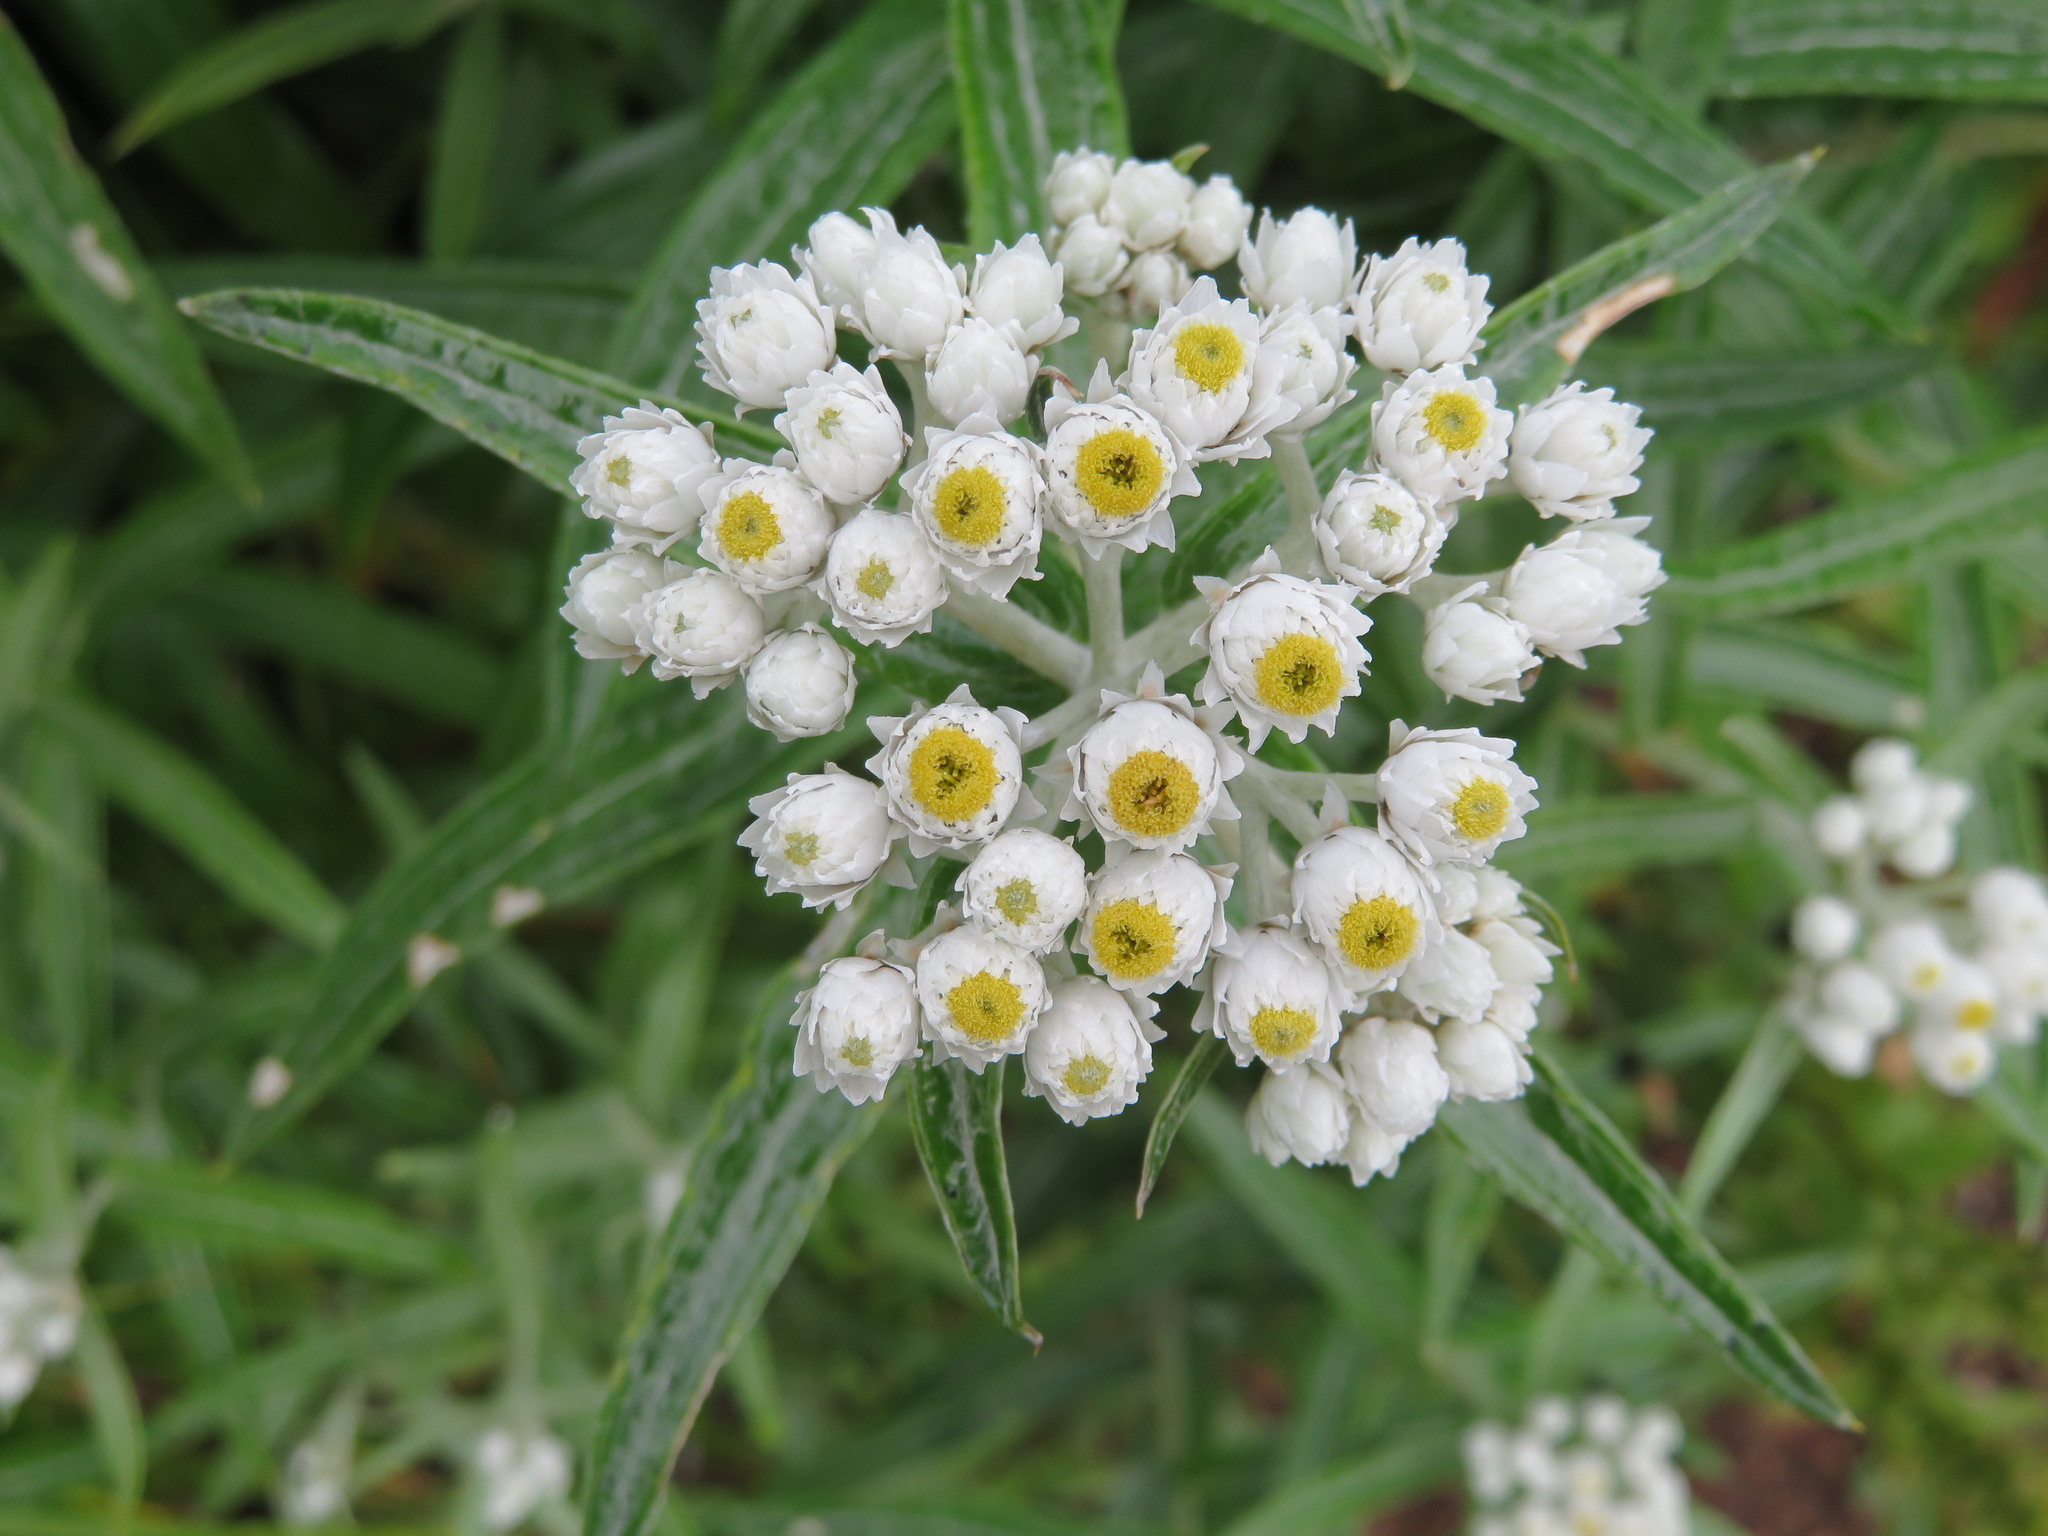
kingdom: Plantae
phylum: Tracheophyta
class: Magnoliopsida
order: Asterales
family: Asteraceae
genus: Anaphalis
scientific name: Anaphalis margaritacea
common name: Pearly everlasting
